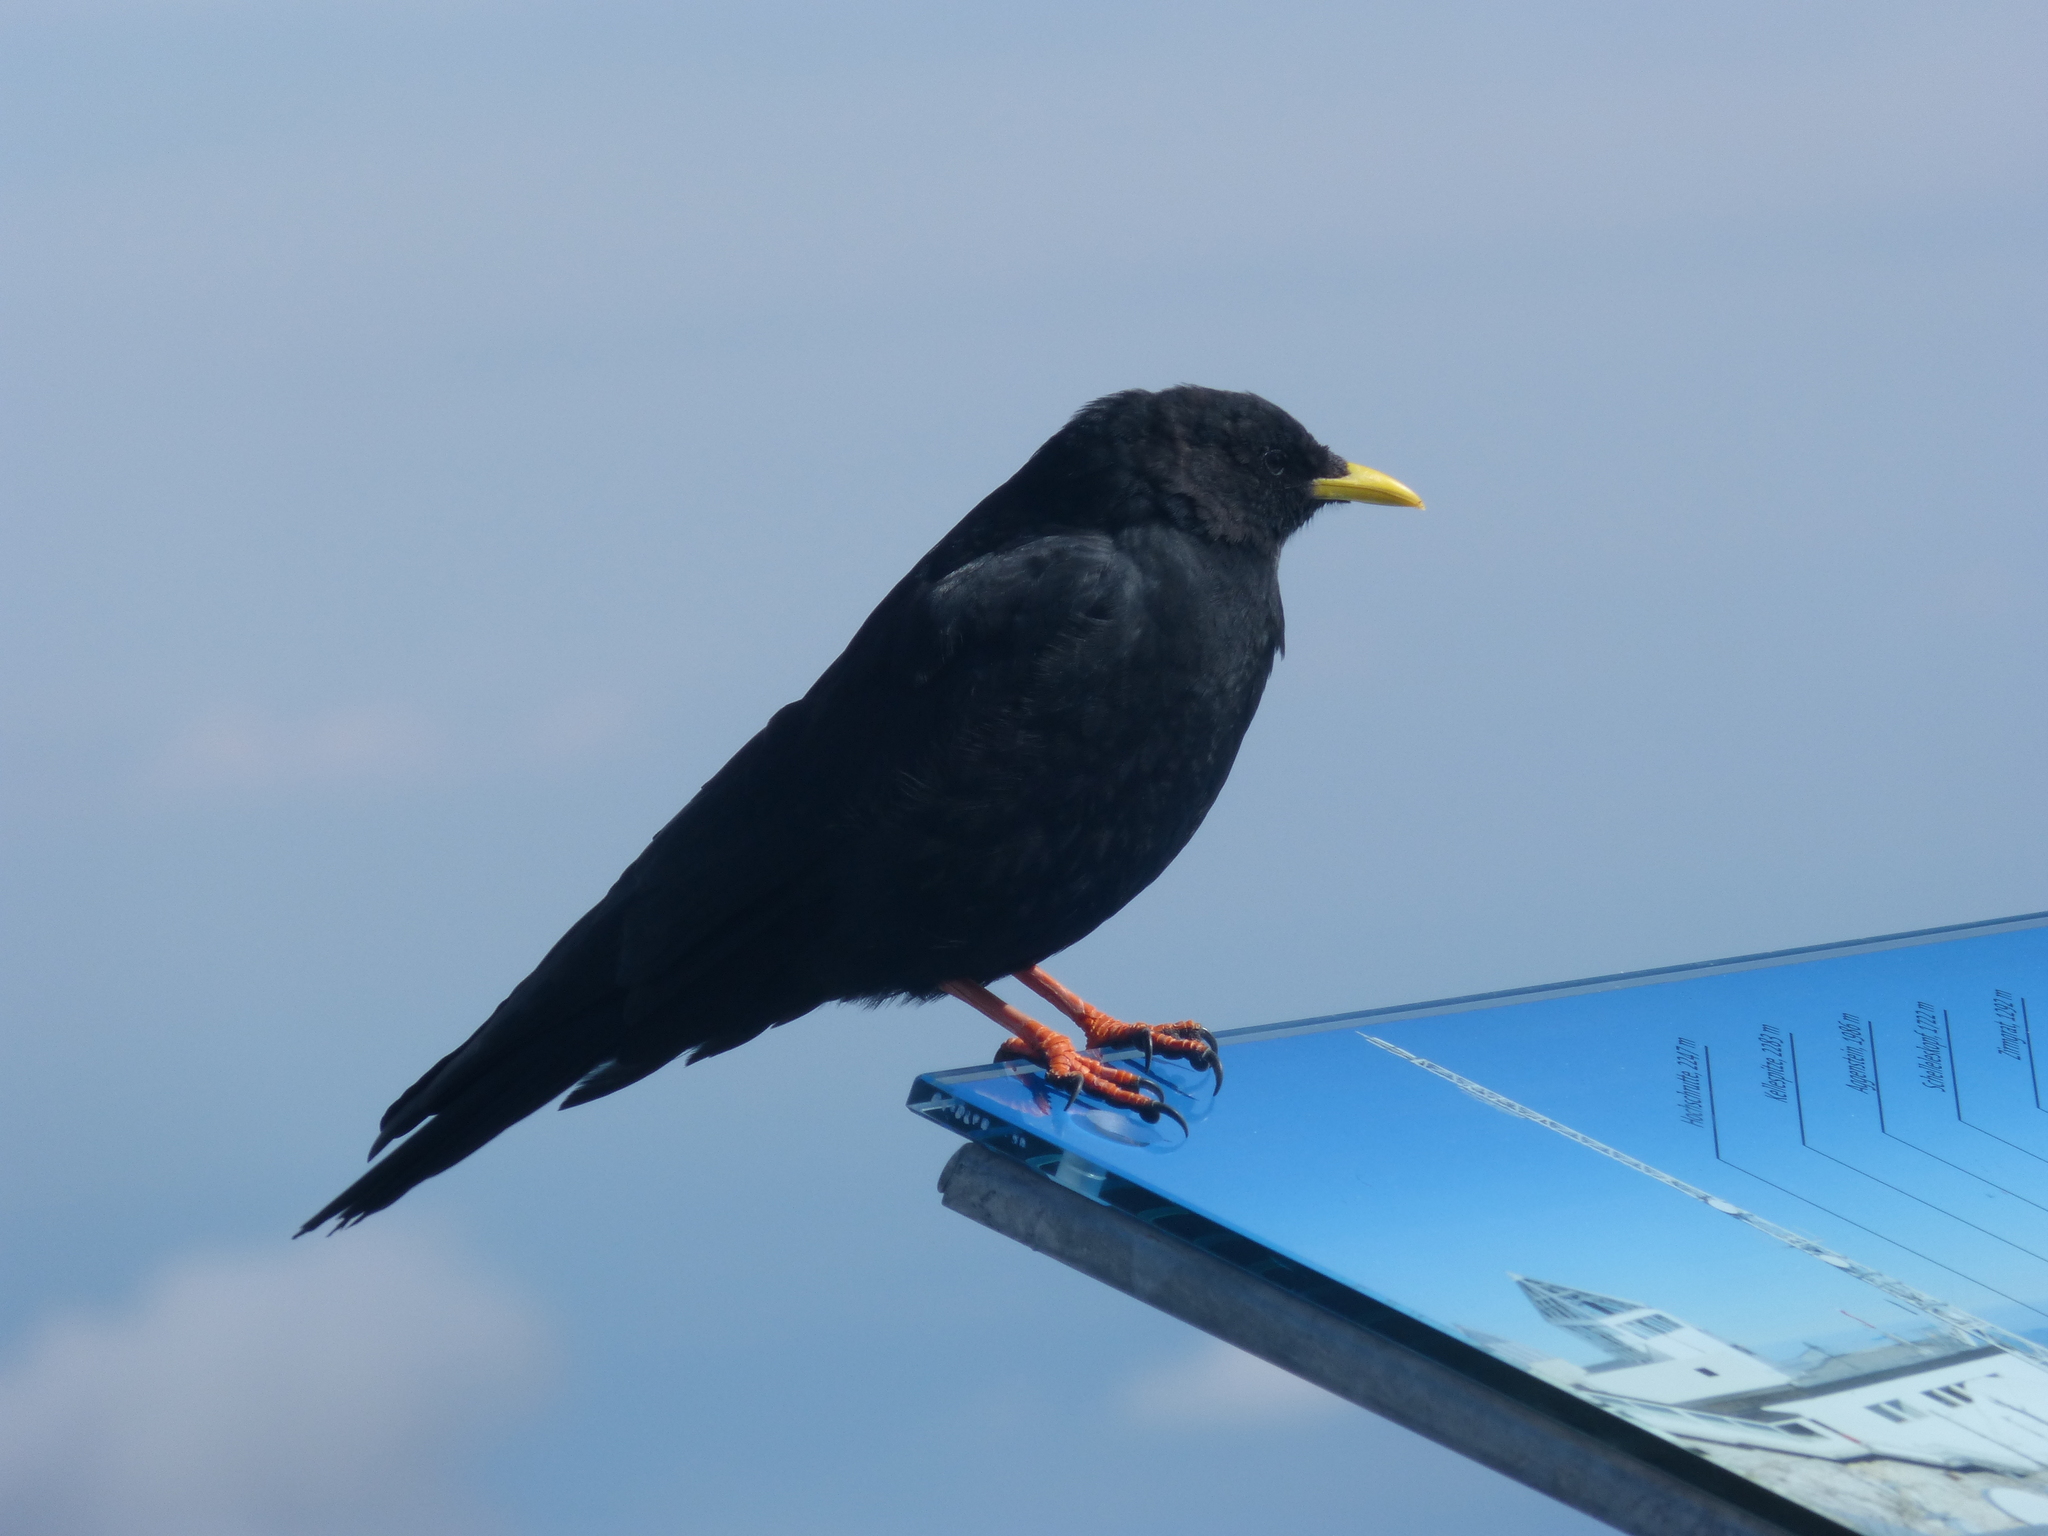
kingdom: Animalia
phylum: Chordata
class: Aves
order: Passeriformes
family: Corvidae
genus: Pyrrhocorax
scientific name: Pyrrhocorax graculus
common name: Alpine chough
